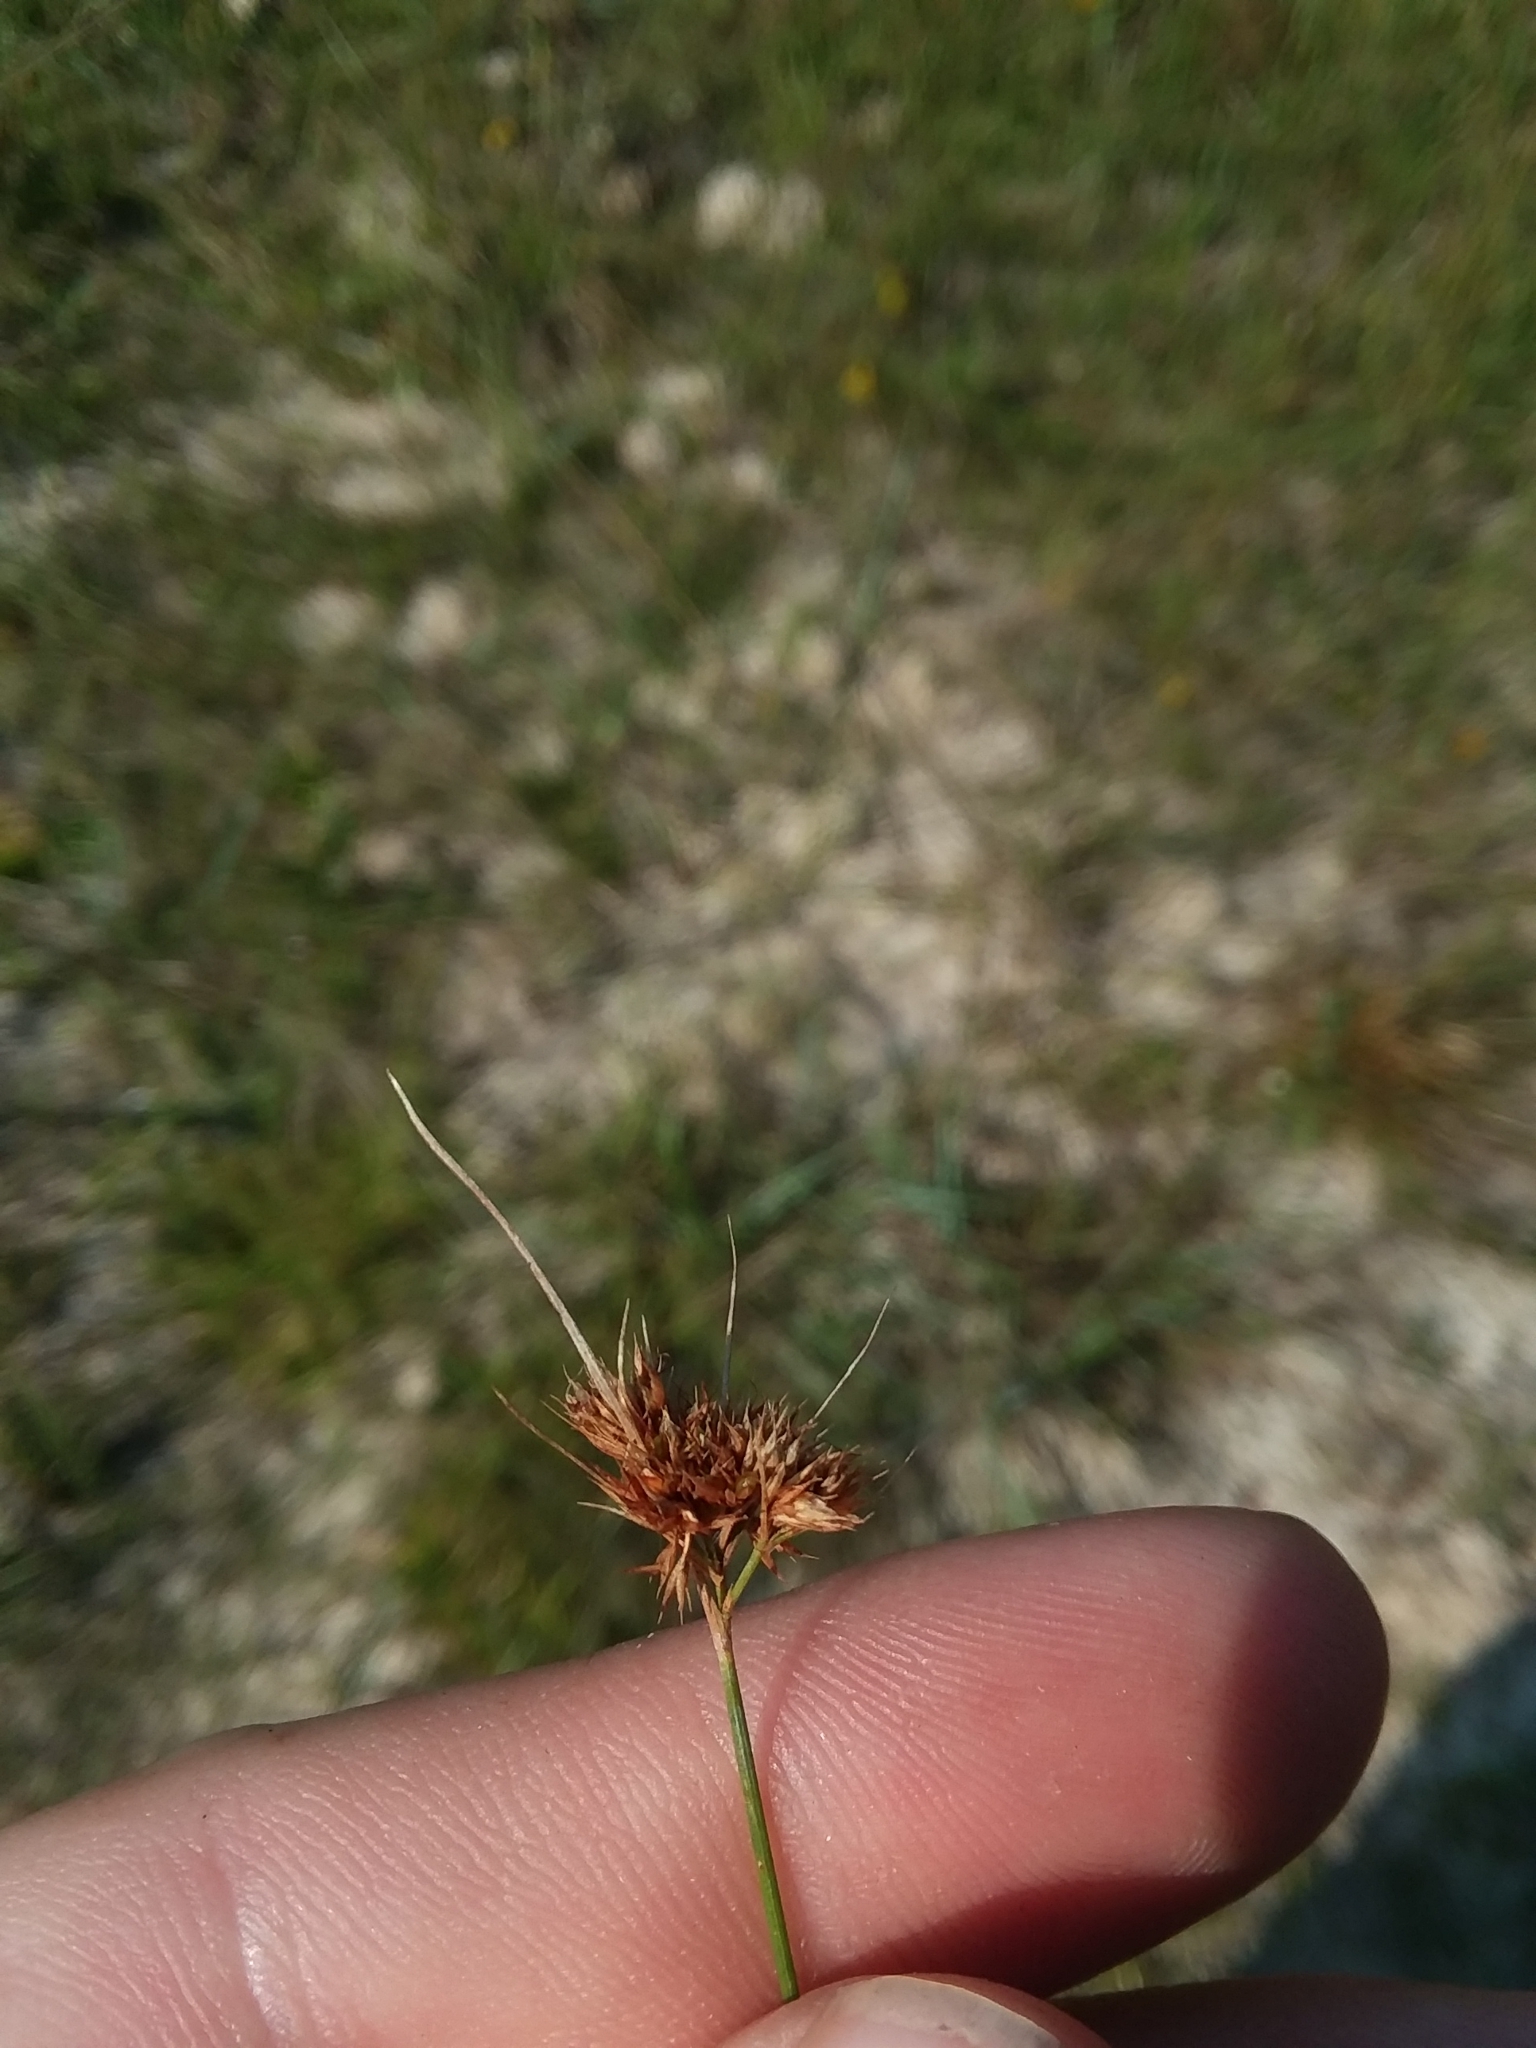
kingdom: Plantae
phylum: Tracheophyta
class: Liliopsida
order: Poales
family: Cyperaceae
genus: Rhynchospora
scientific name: Rhynchospora chapmanii
